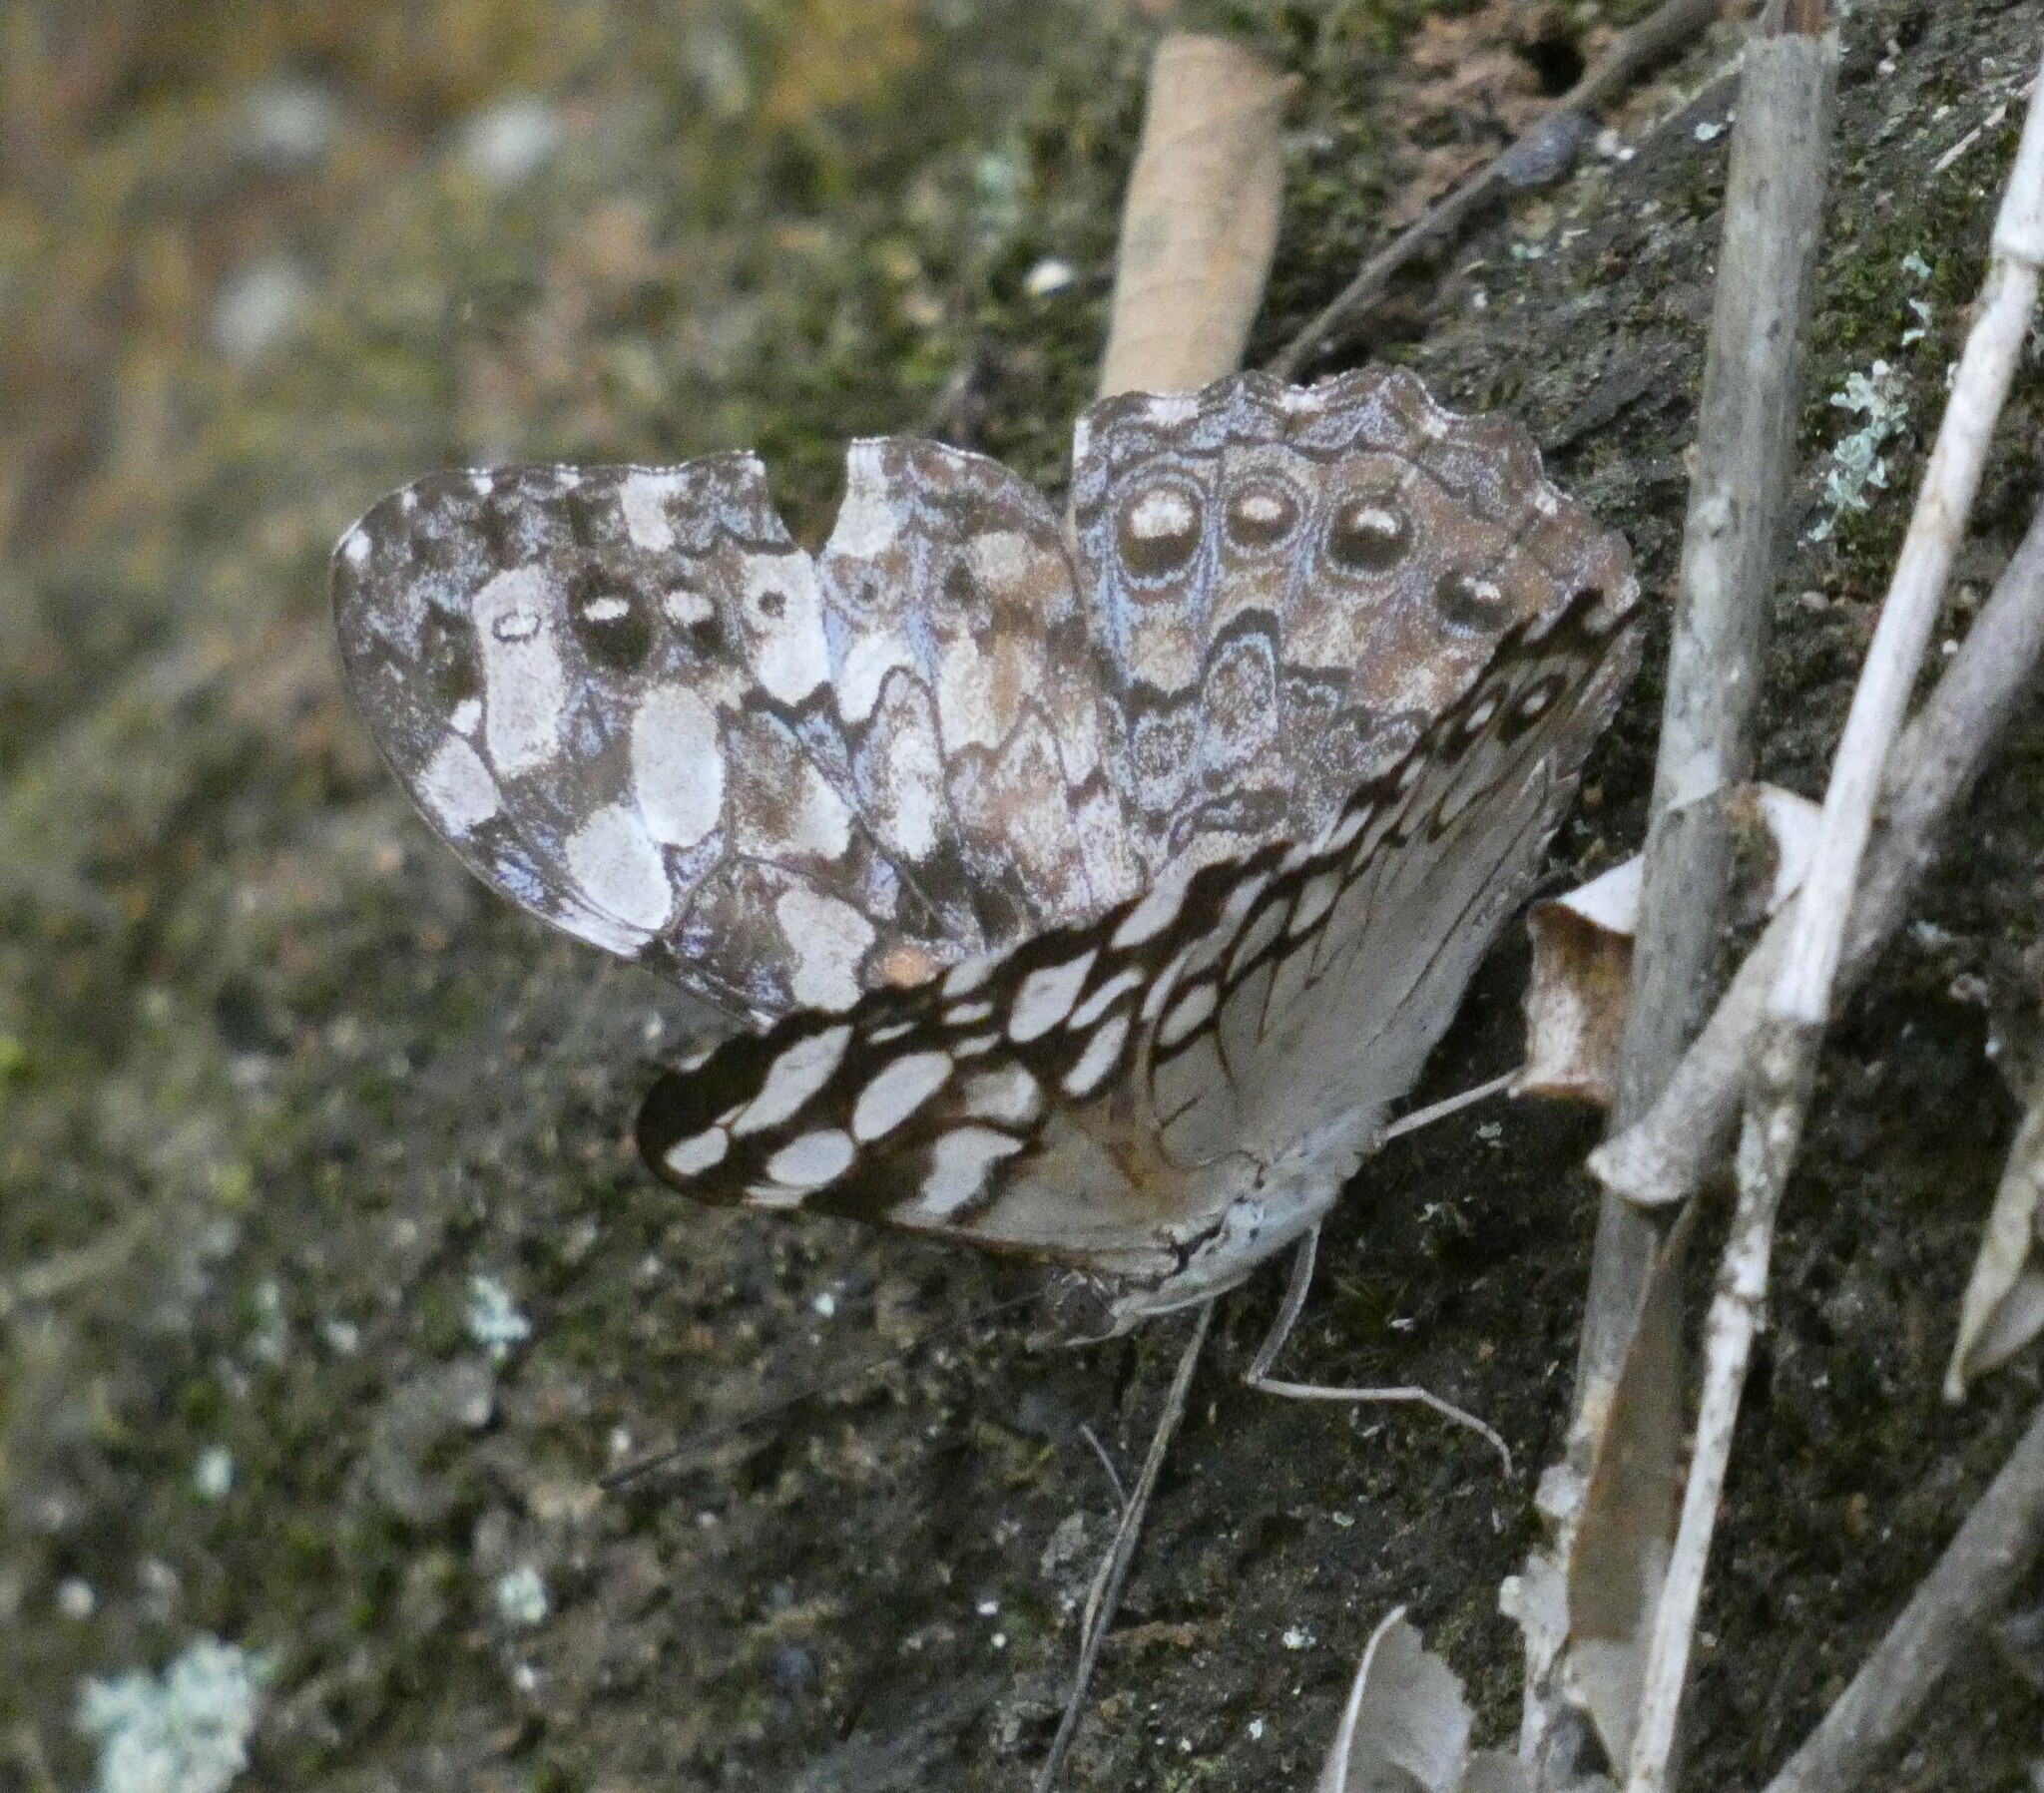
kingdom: Animalia
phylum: Arthropoda
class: Insecta
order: Lepidoptera
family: Nymphalidae
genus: Hamadryas
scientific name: Hamadryas epinome
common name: Epinome cracker
